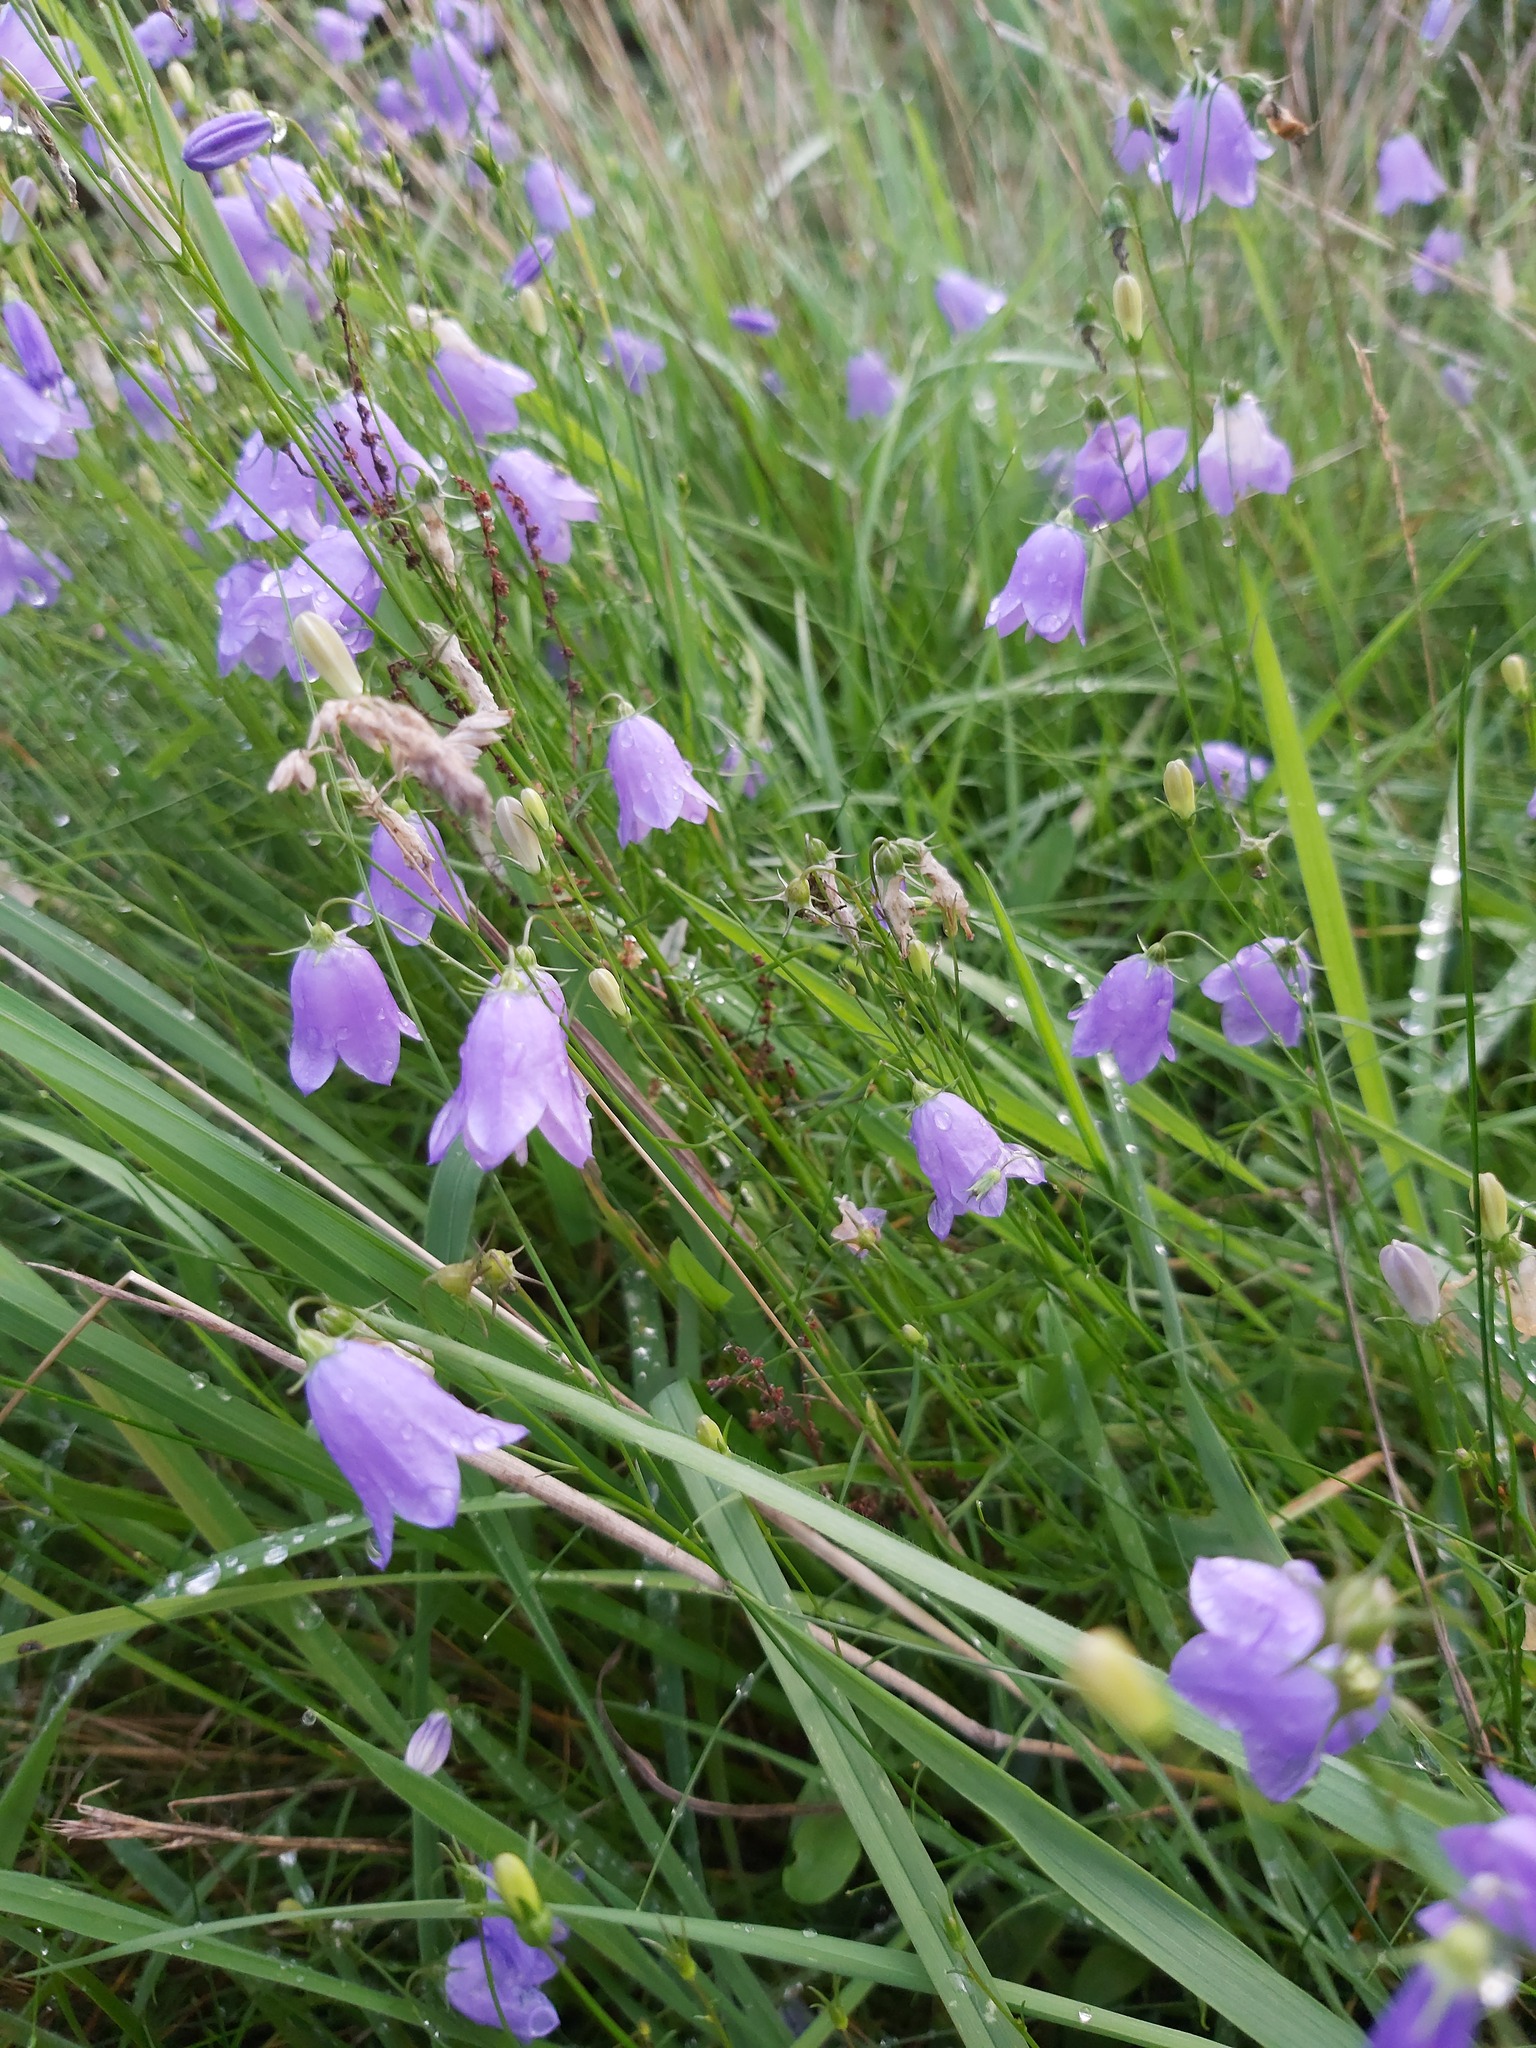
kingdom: Plantae
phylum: Tracheophyta
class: Magnoliopsida
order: Asterales
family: Campanulaceae
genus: Campanula
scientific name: Campanula rotundifolia
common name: Harebell
